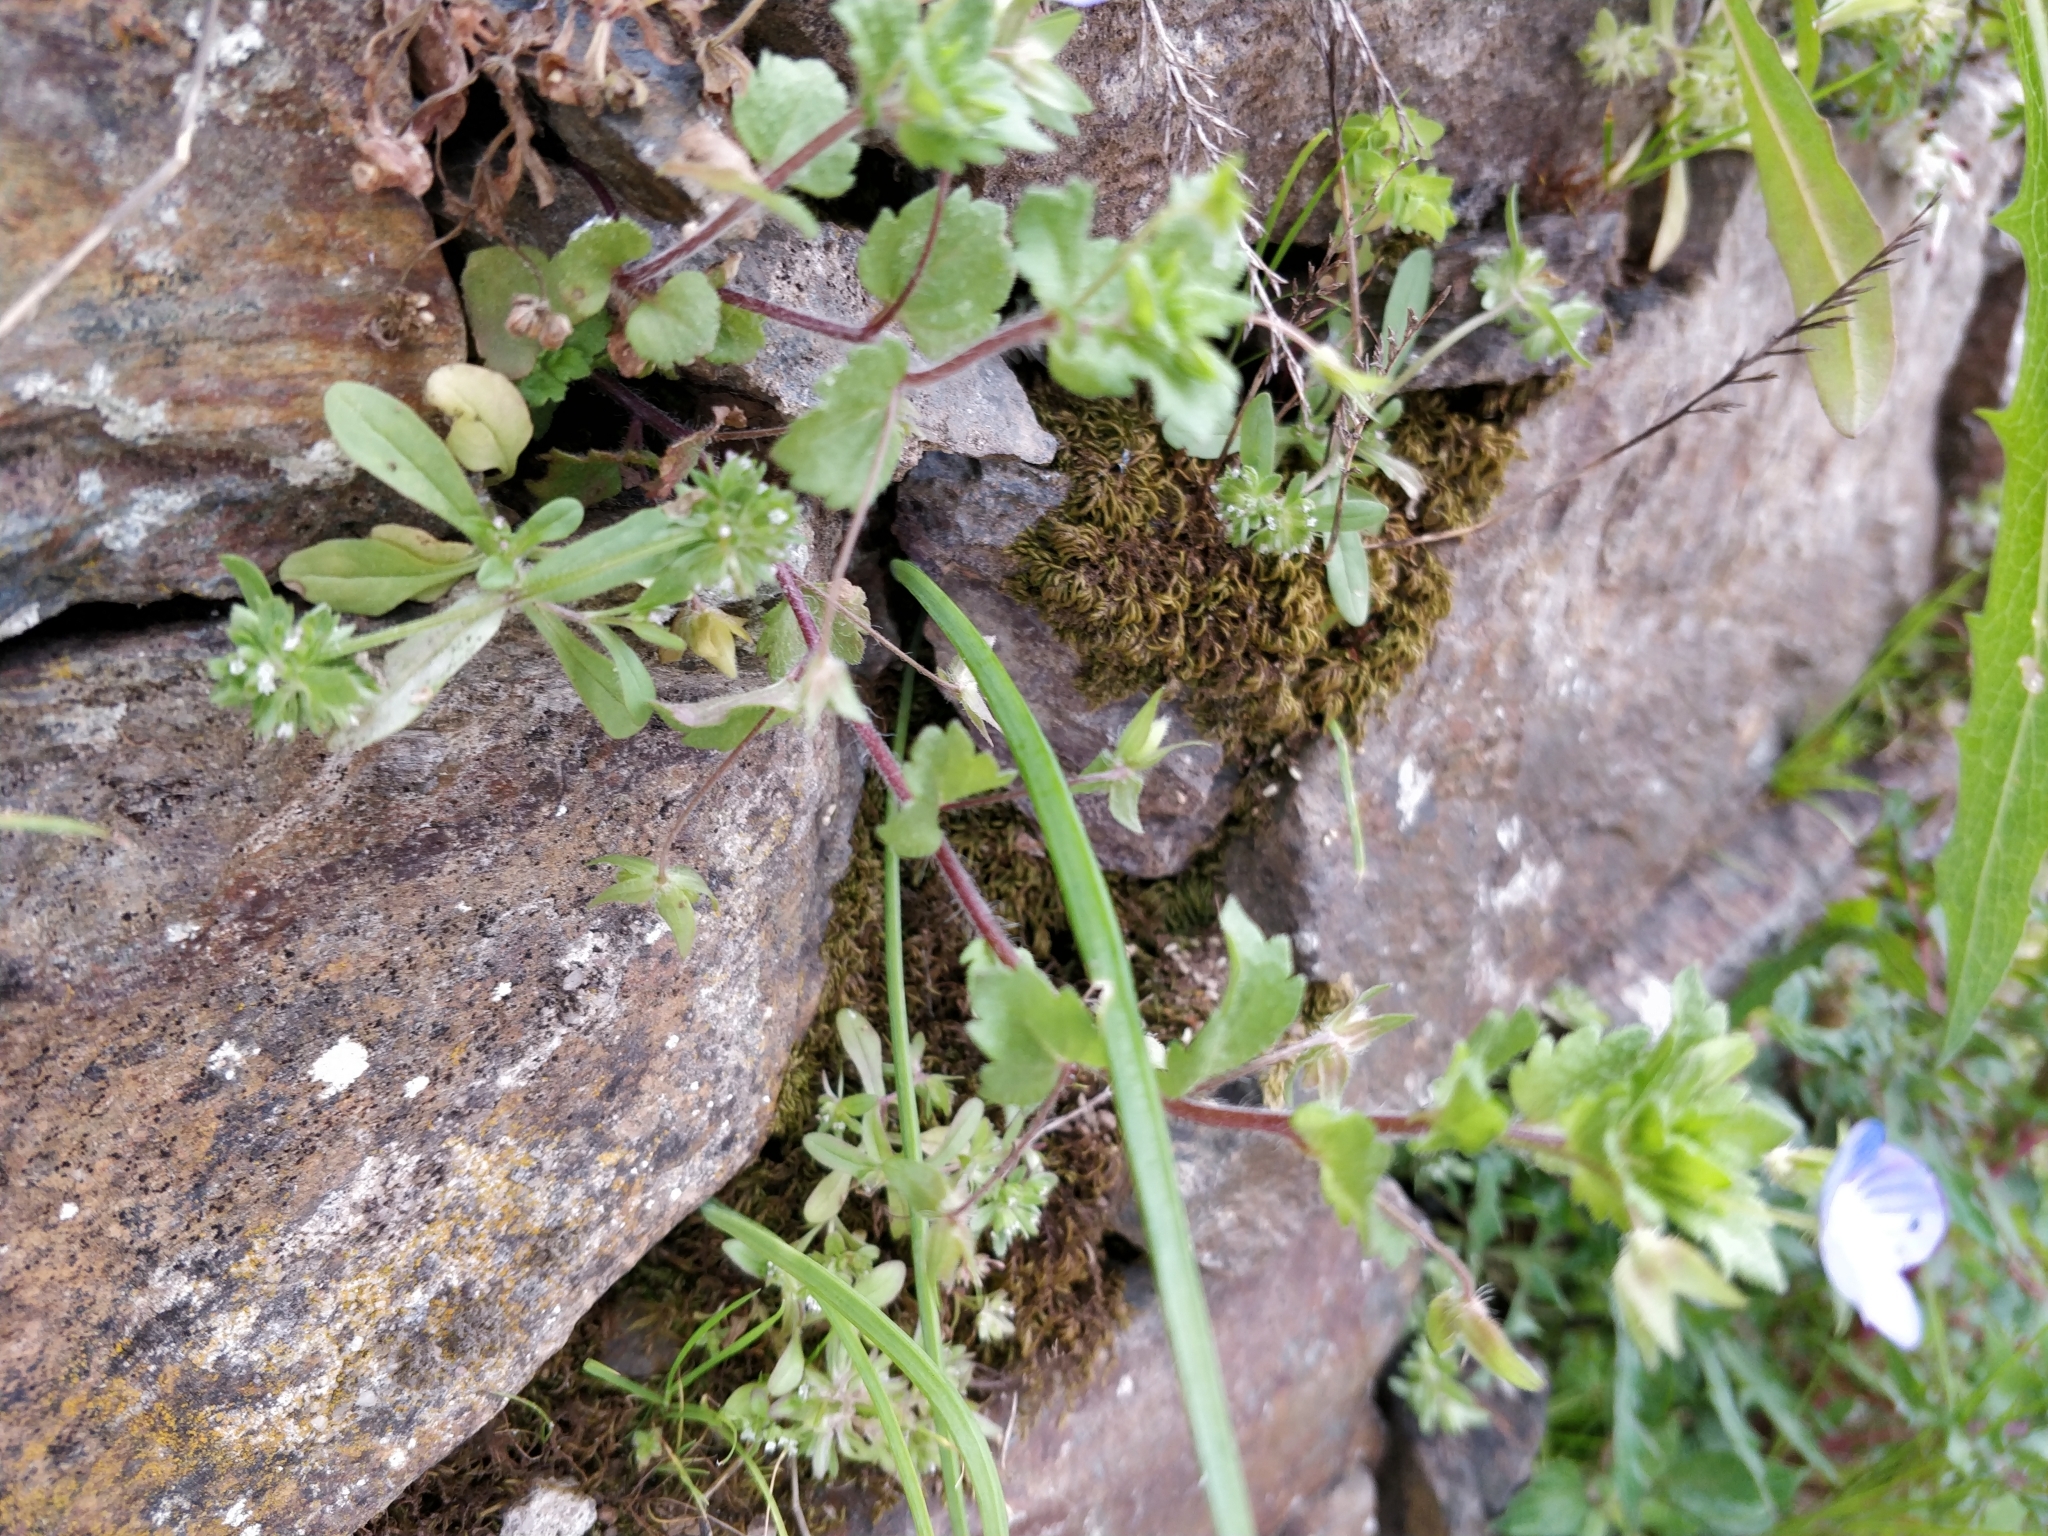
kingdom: Plantae
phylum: Tracheophyta
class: Magnoliopsida
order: Lamiales
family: Plantaginaceae
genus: Veronica
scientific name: Veronica persica
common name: Common field-speedwell
